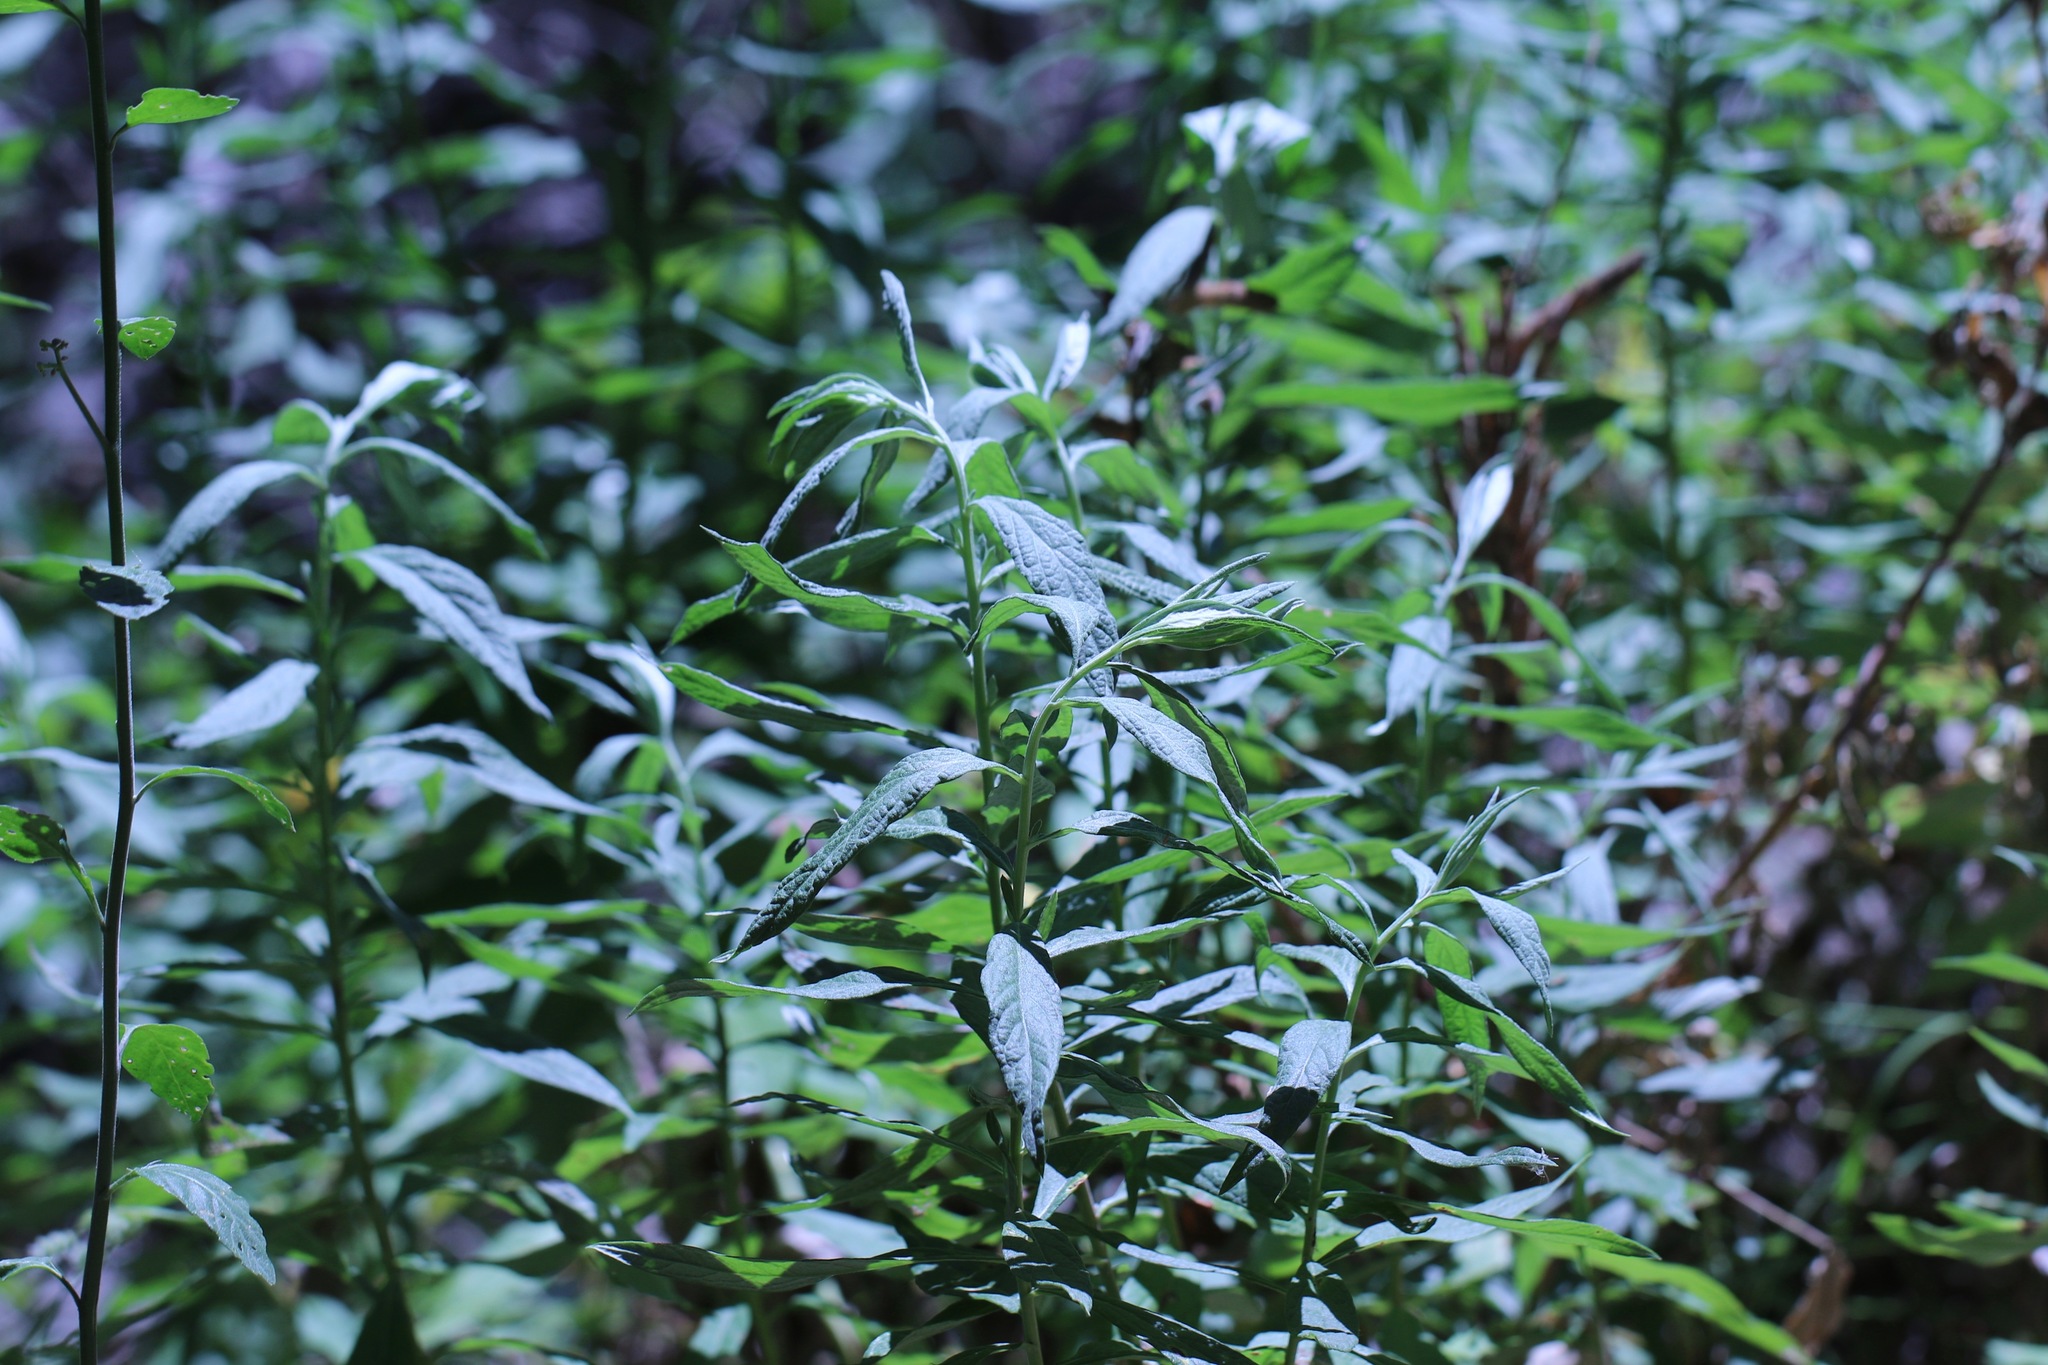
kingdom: Plantae
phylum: Tracheophyta
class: Magnoliopsida
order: Asterales
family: Asteraceae
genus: Artemisia
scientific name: Artemisia douglasiana
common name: Northwest mugwort
